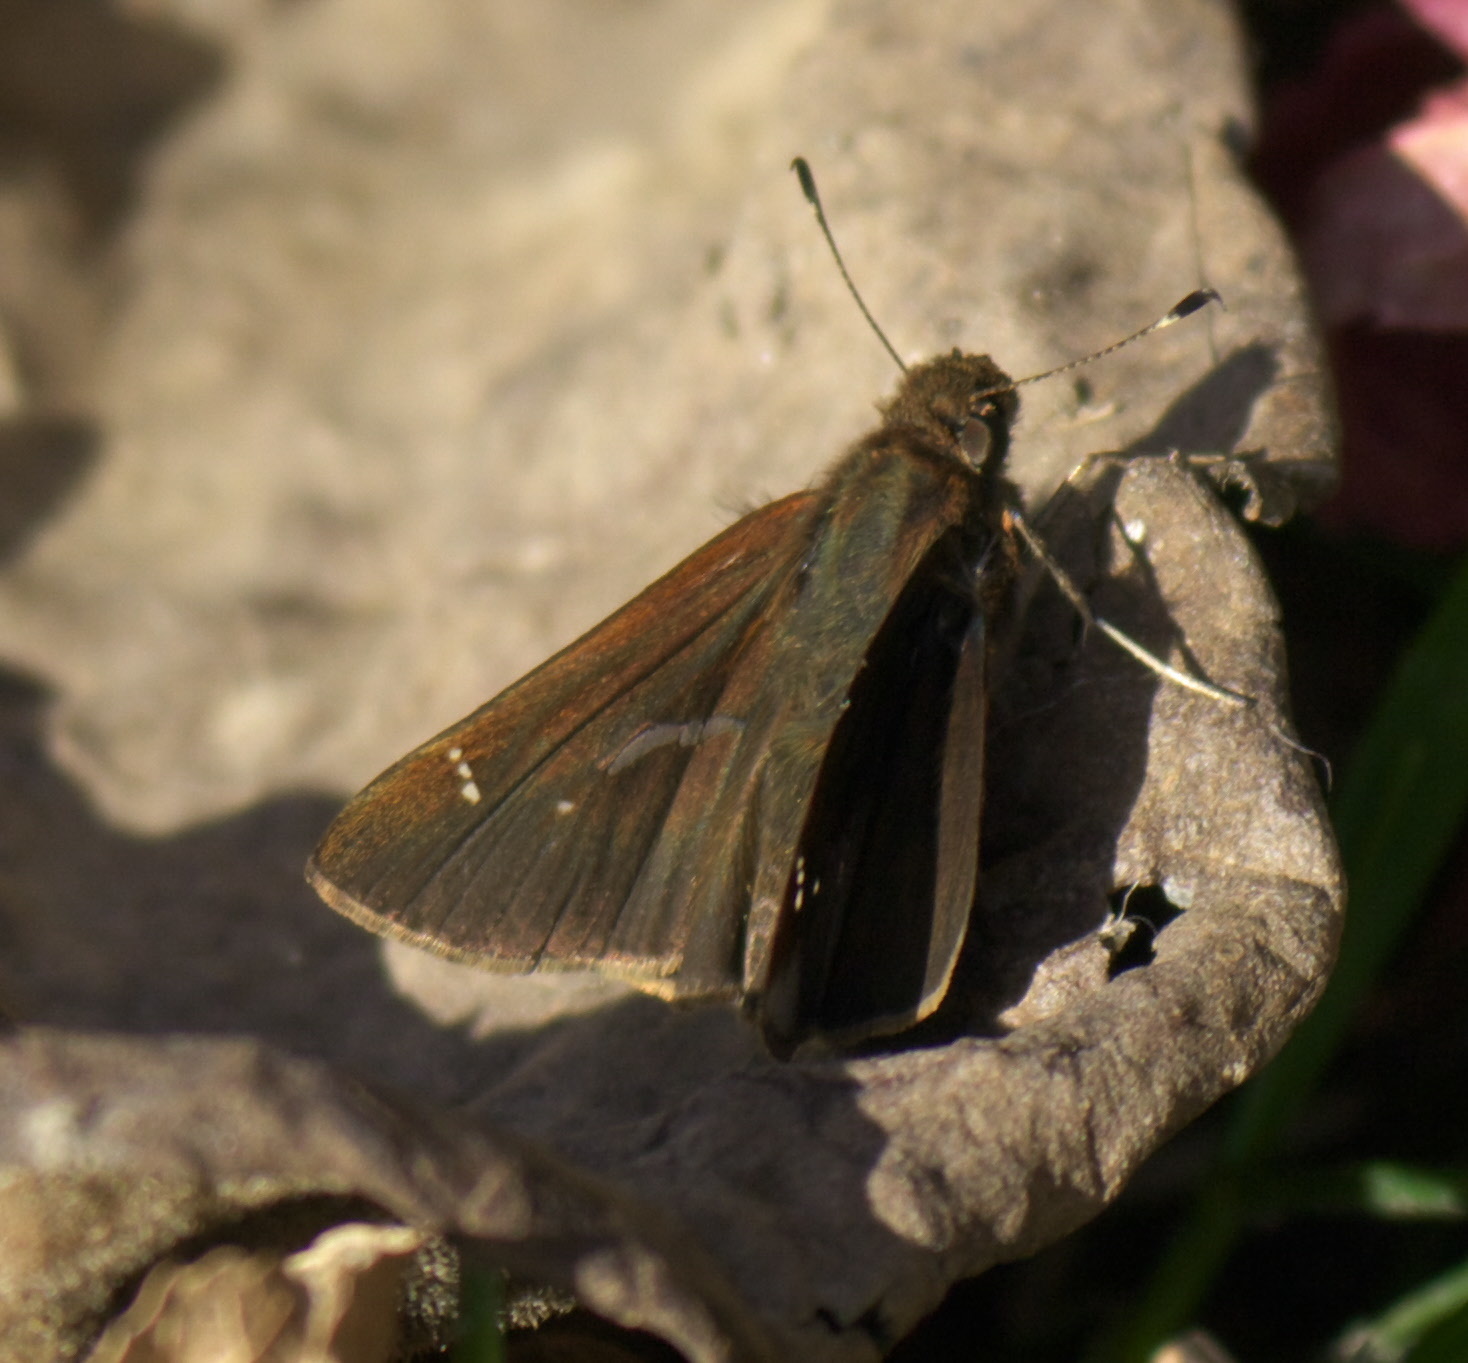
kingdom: Animalia
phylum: Arthropoda
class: Insecta
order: Lepidoptera
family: Hesperiidae
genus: Lerema
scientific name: Lerema accius
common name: Clouded skipper
